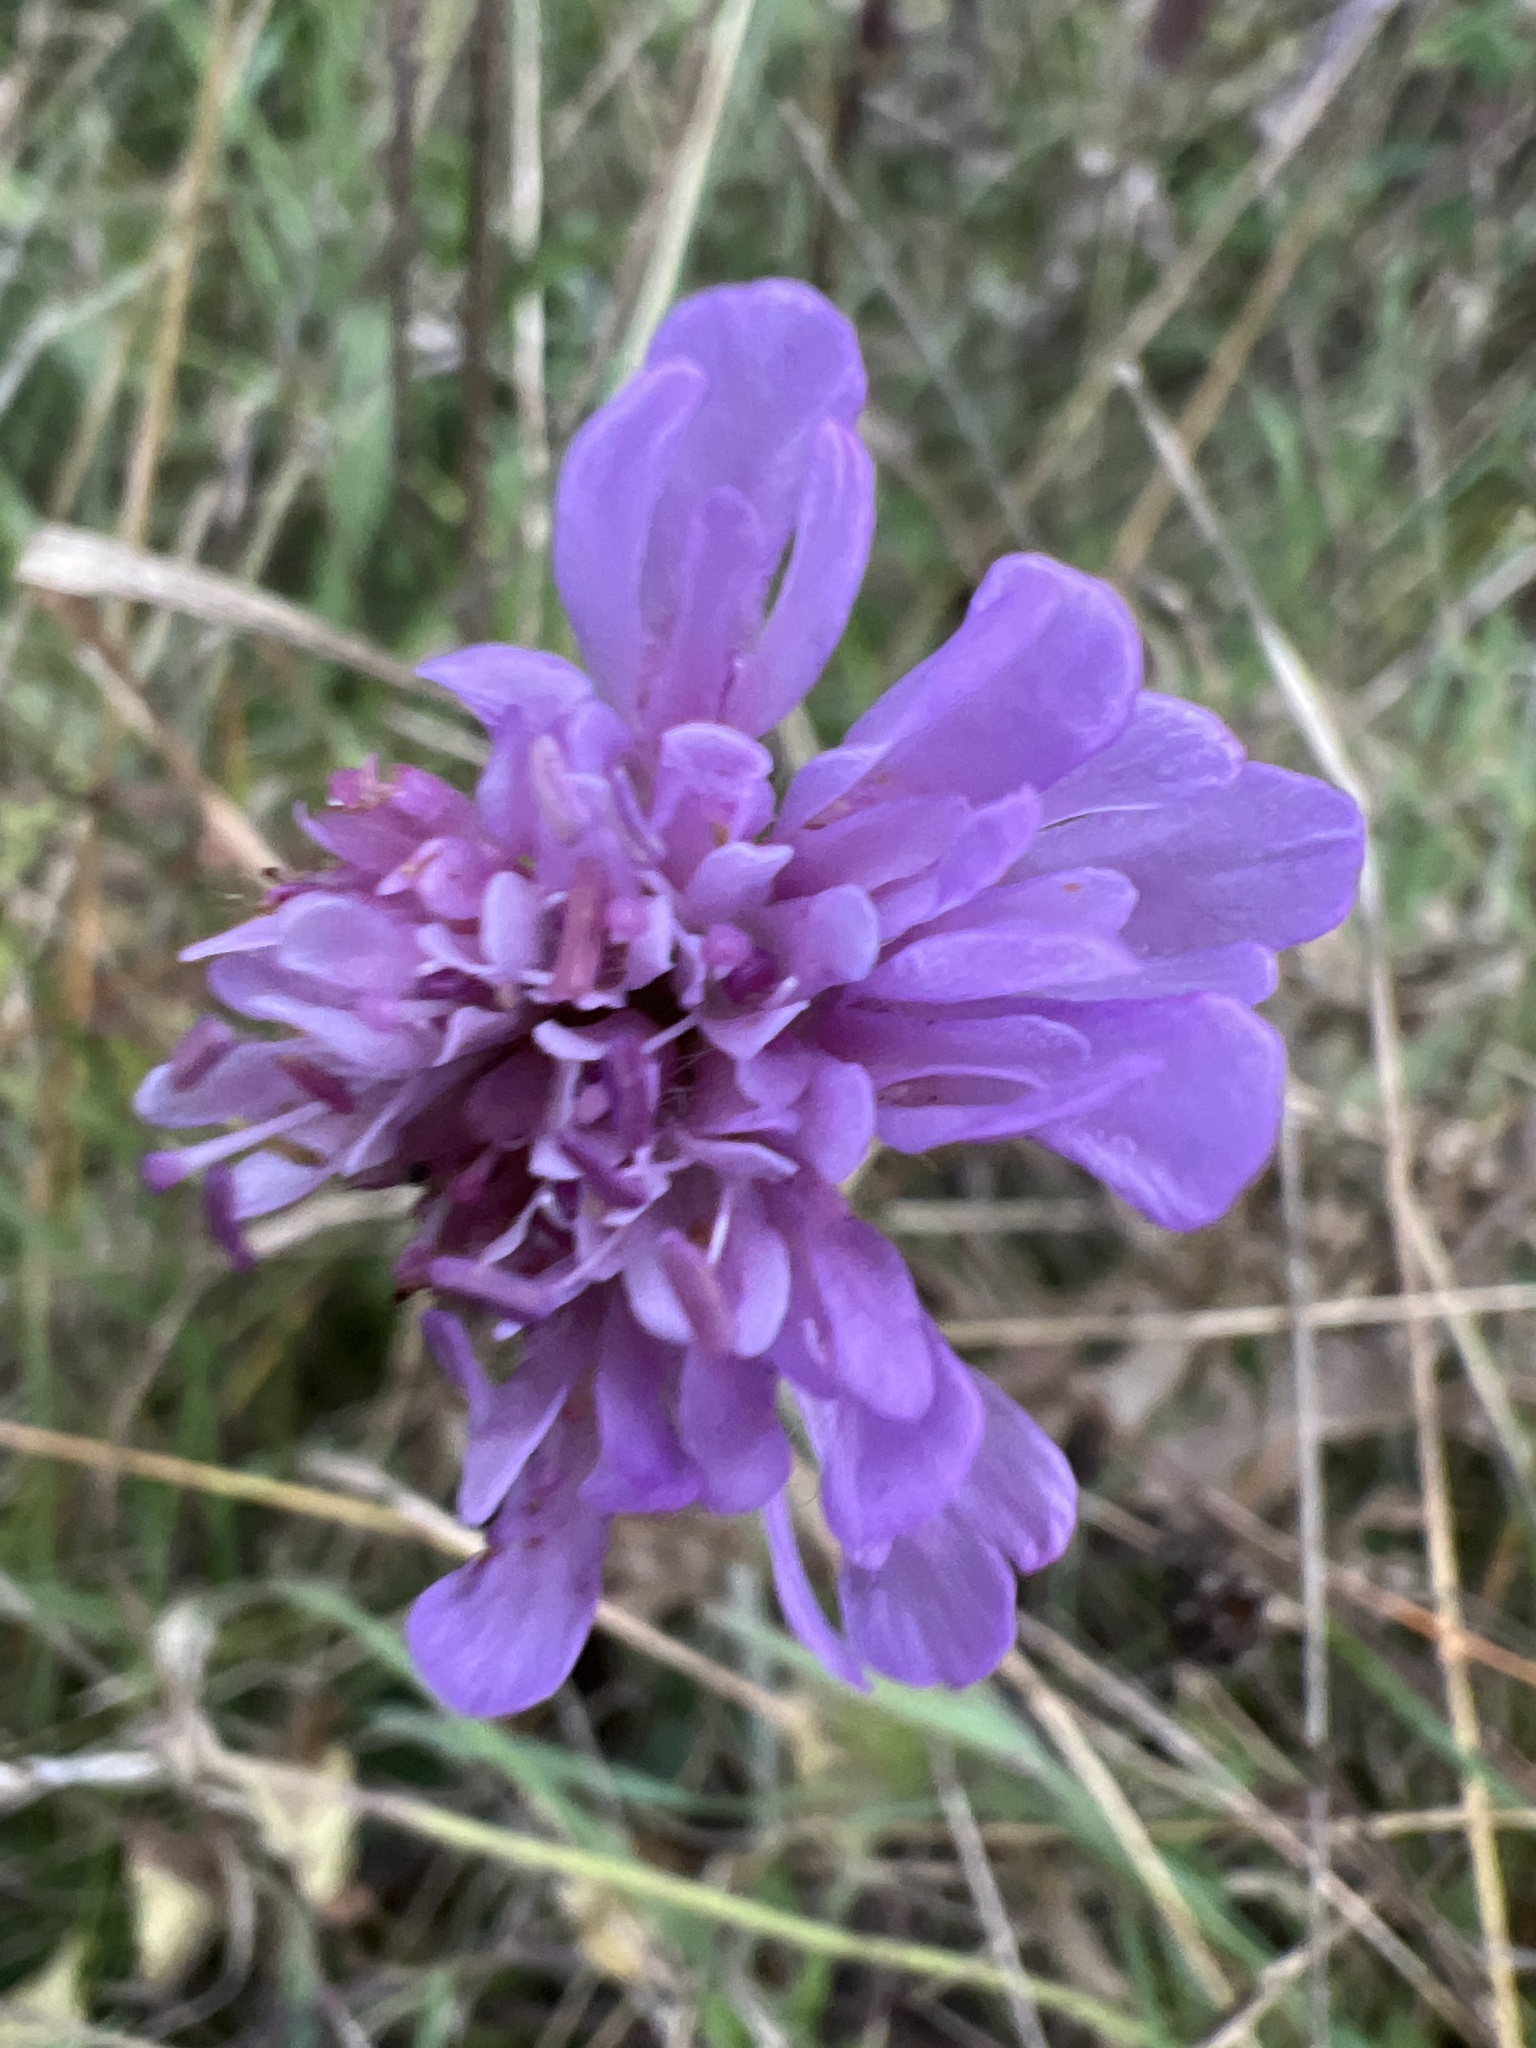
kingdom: Plantae
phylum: Tracheophyta
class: Magnoliopsida
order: Dipsacales
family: Caprifoliaceae
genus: Knautia
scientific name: Knautia arvensis
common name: Field scabiosa
